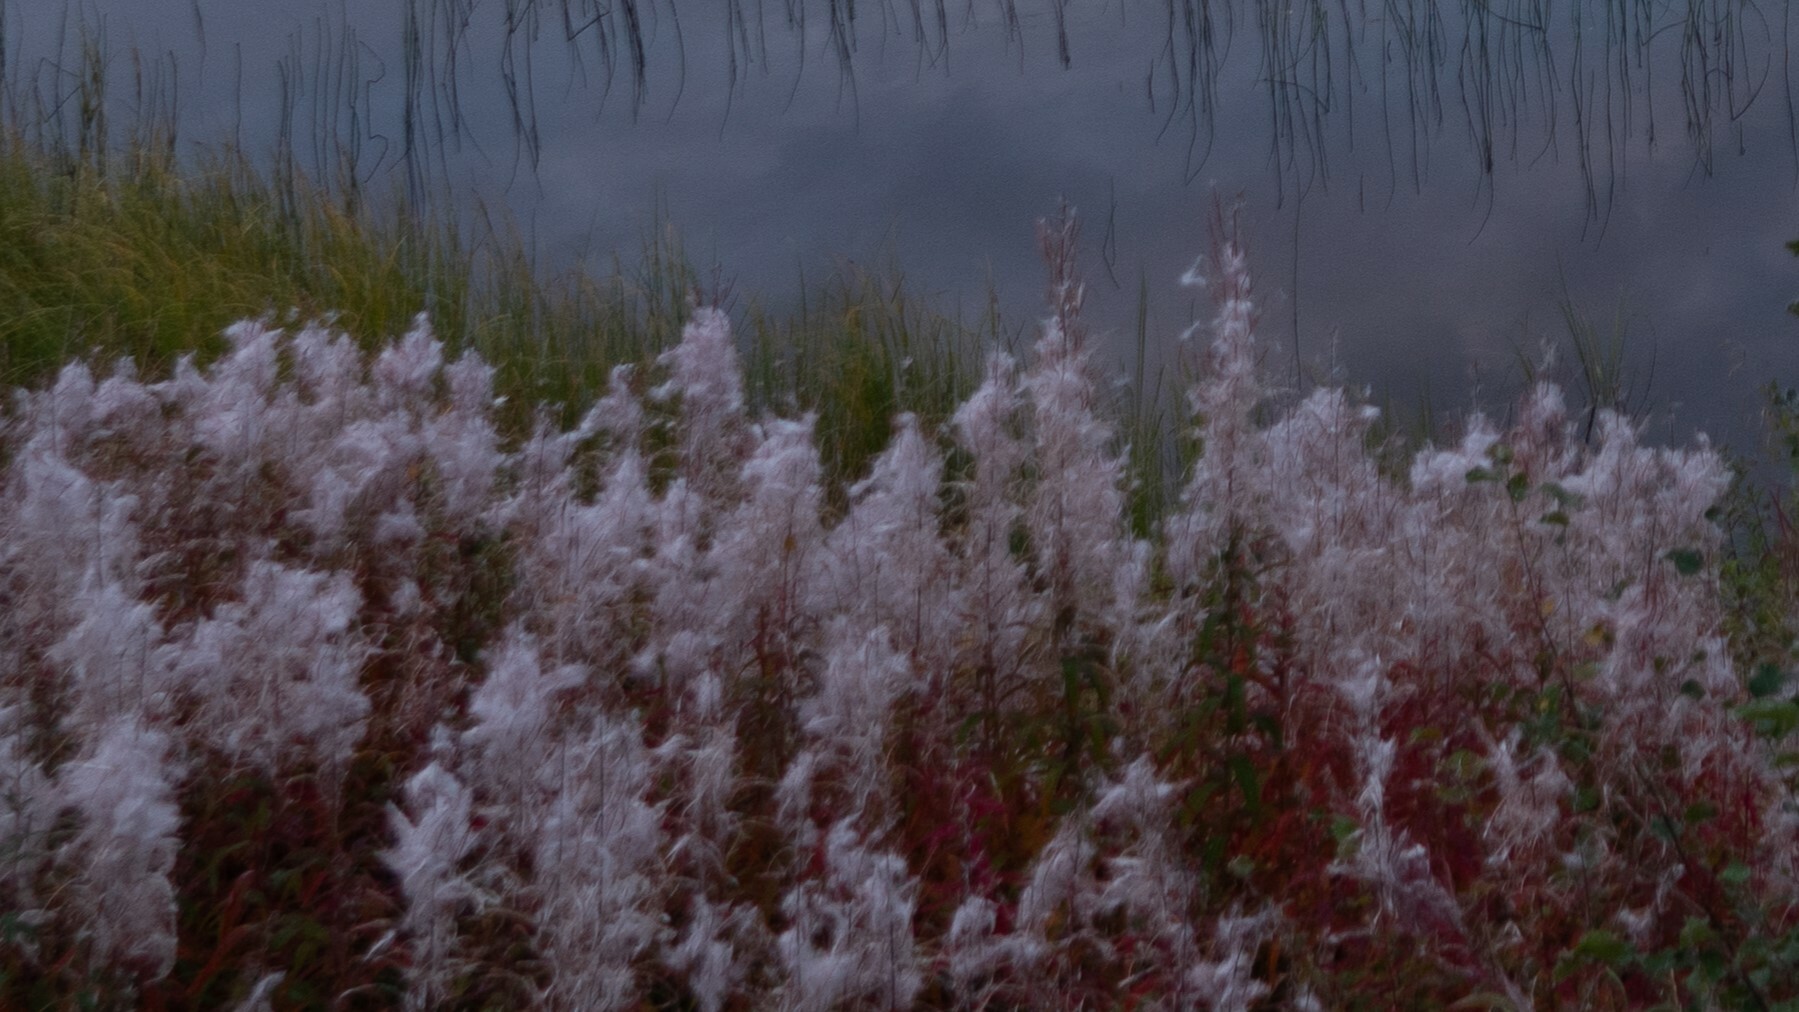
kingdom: Plantae
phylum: Tracheophyta
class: Magnoliopsida
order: Myrtales
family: Onagraceae
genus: Chamaenerion
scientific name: Chamaenerion angustifolium
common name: Fireweed
